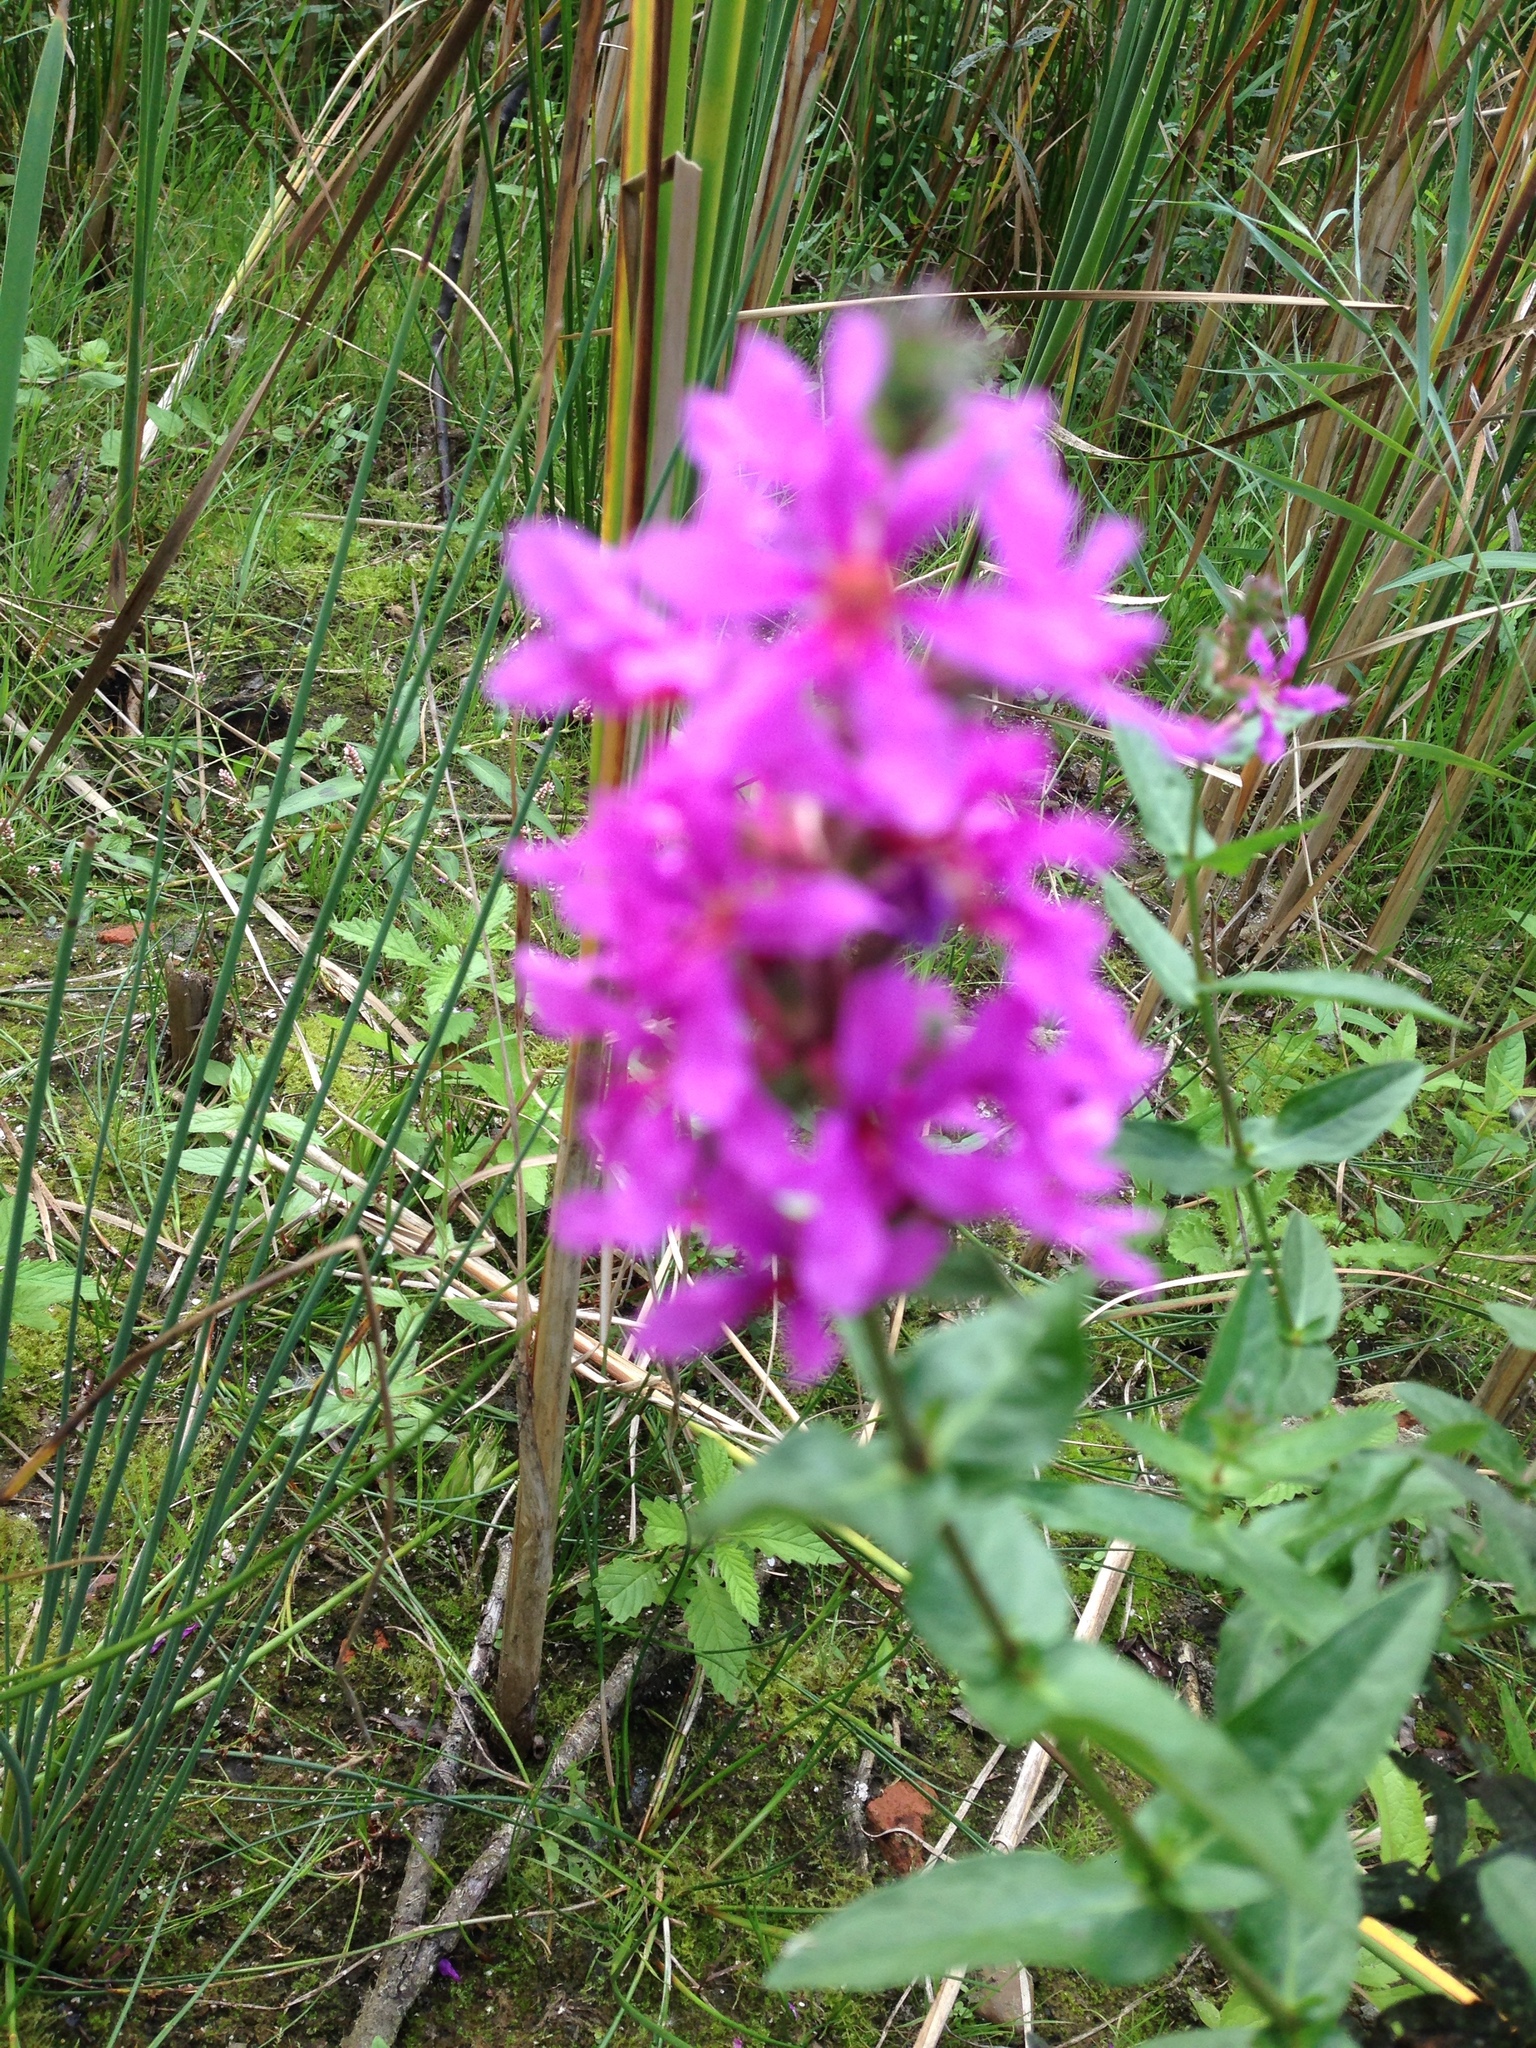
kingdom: Plantae
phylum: Tracheophyta
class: Magnoliopsida
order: Myrtales
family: Lythraceae
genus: Lythrum
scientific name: Lythrum salicaria
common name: Purple loosestrife
